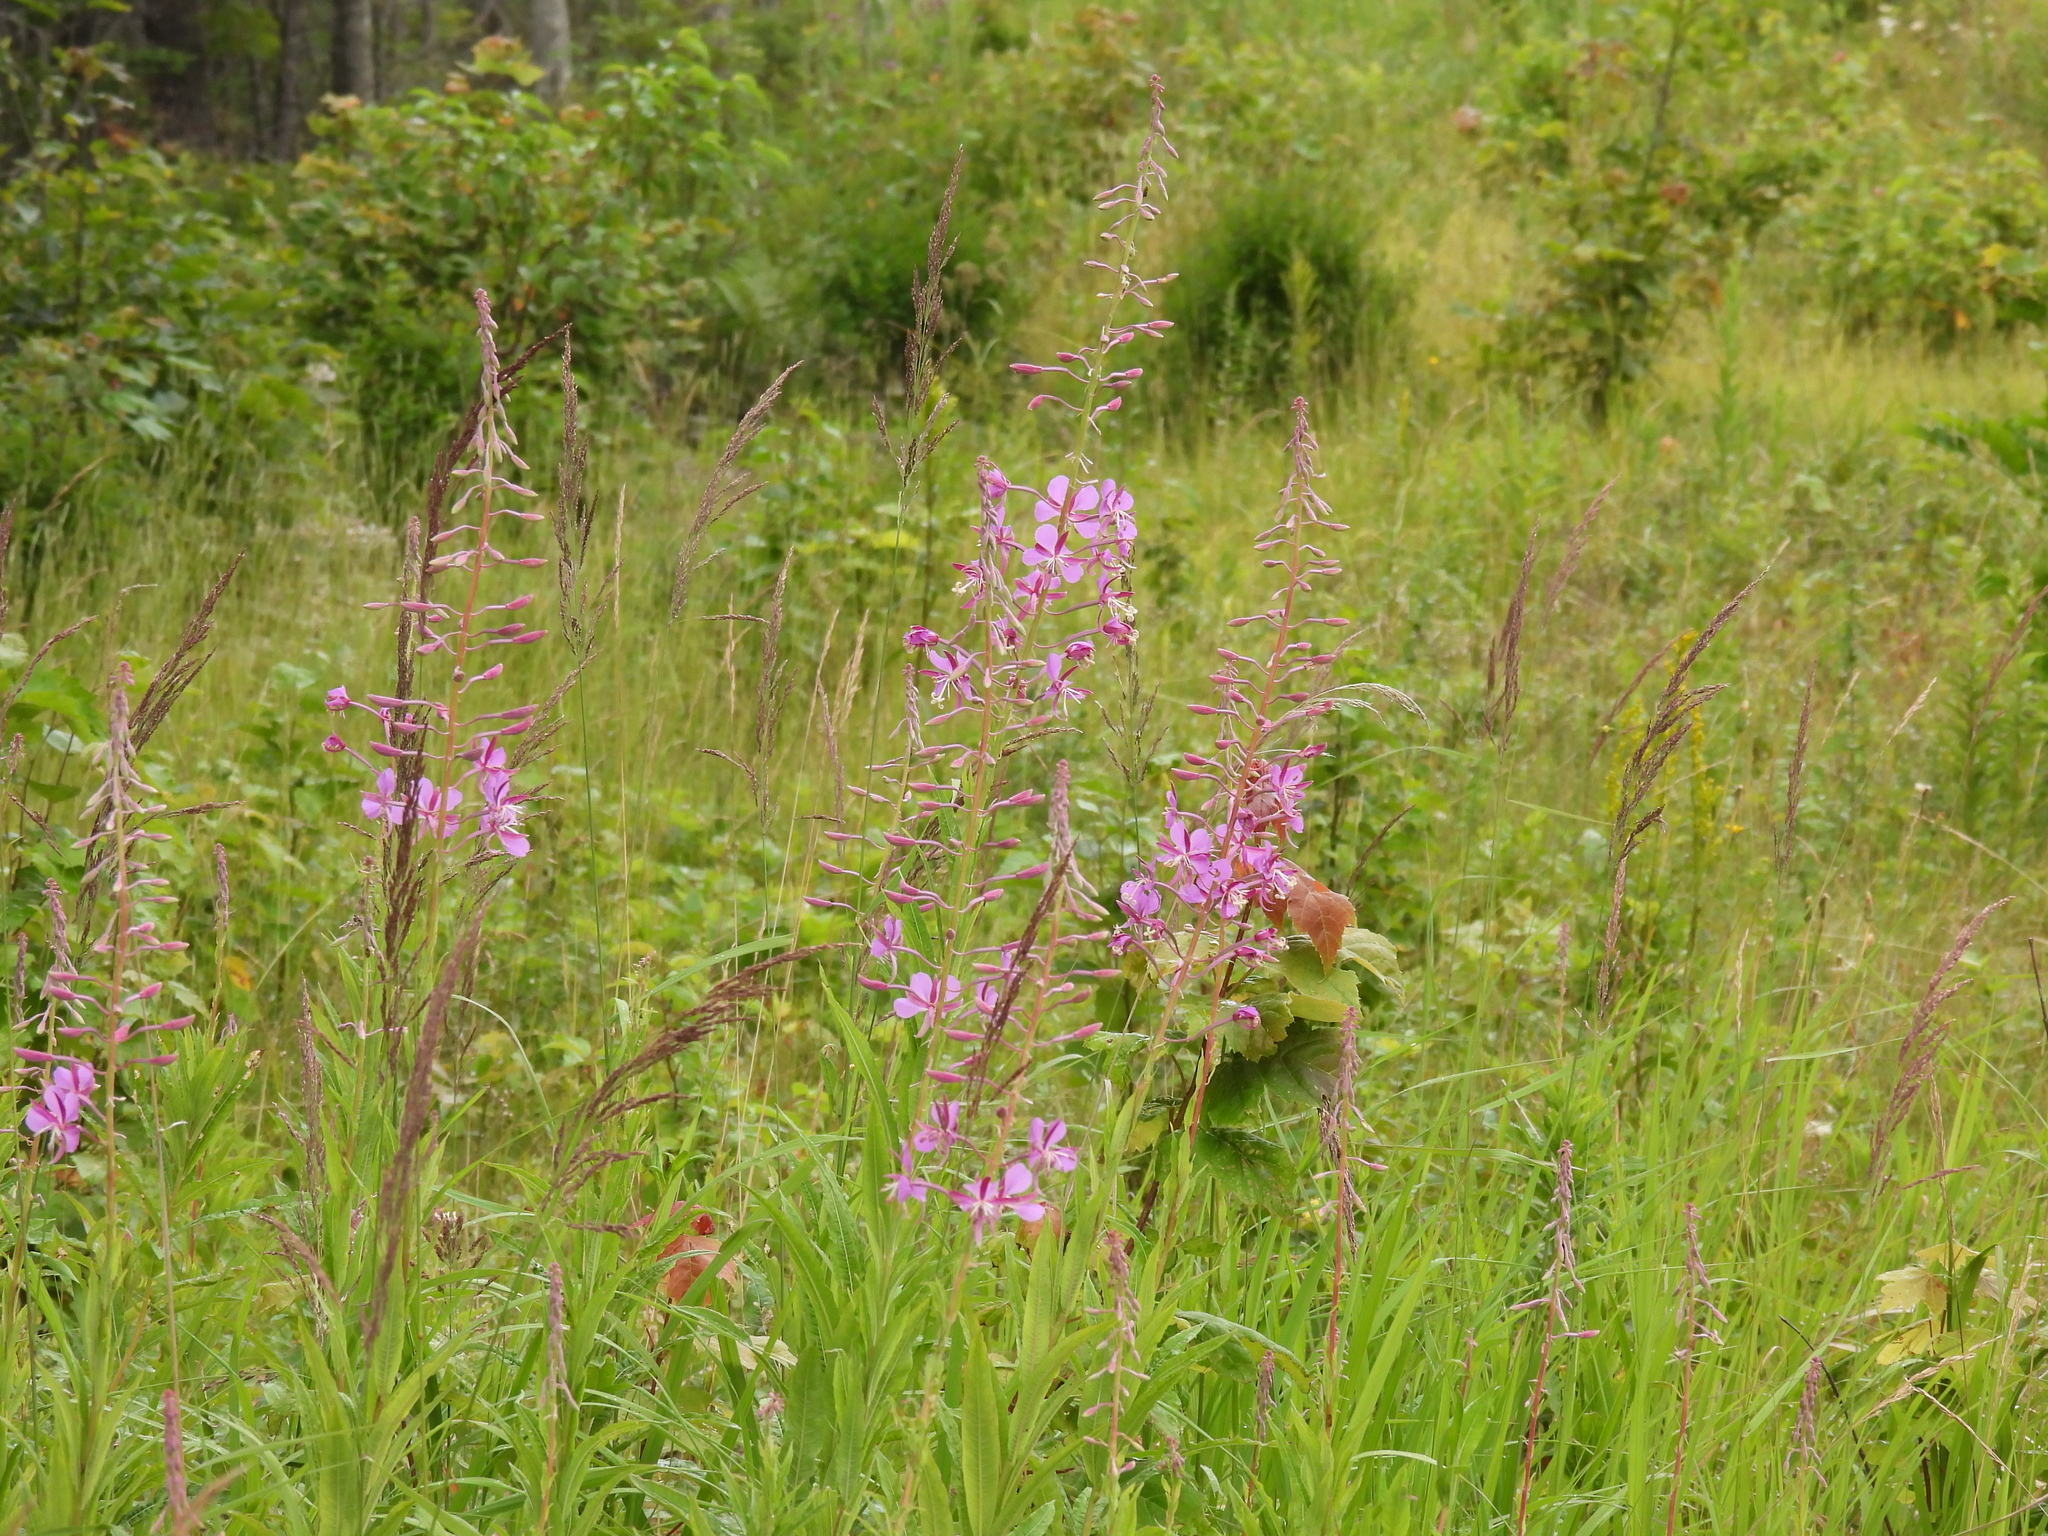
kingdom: Plantae
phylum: Tracheophyta
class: Magnoliopsida
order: Myrtales
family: Lythraceae
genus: Lythrum
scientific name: Lythrum salicaria
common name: Purple loosestrife
